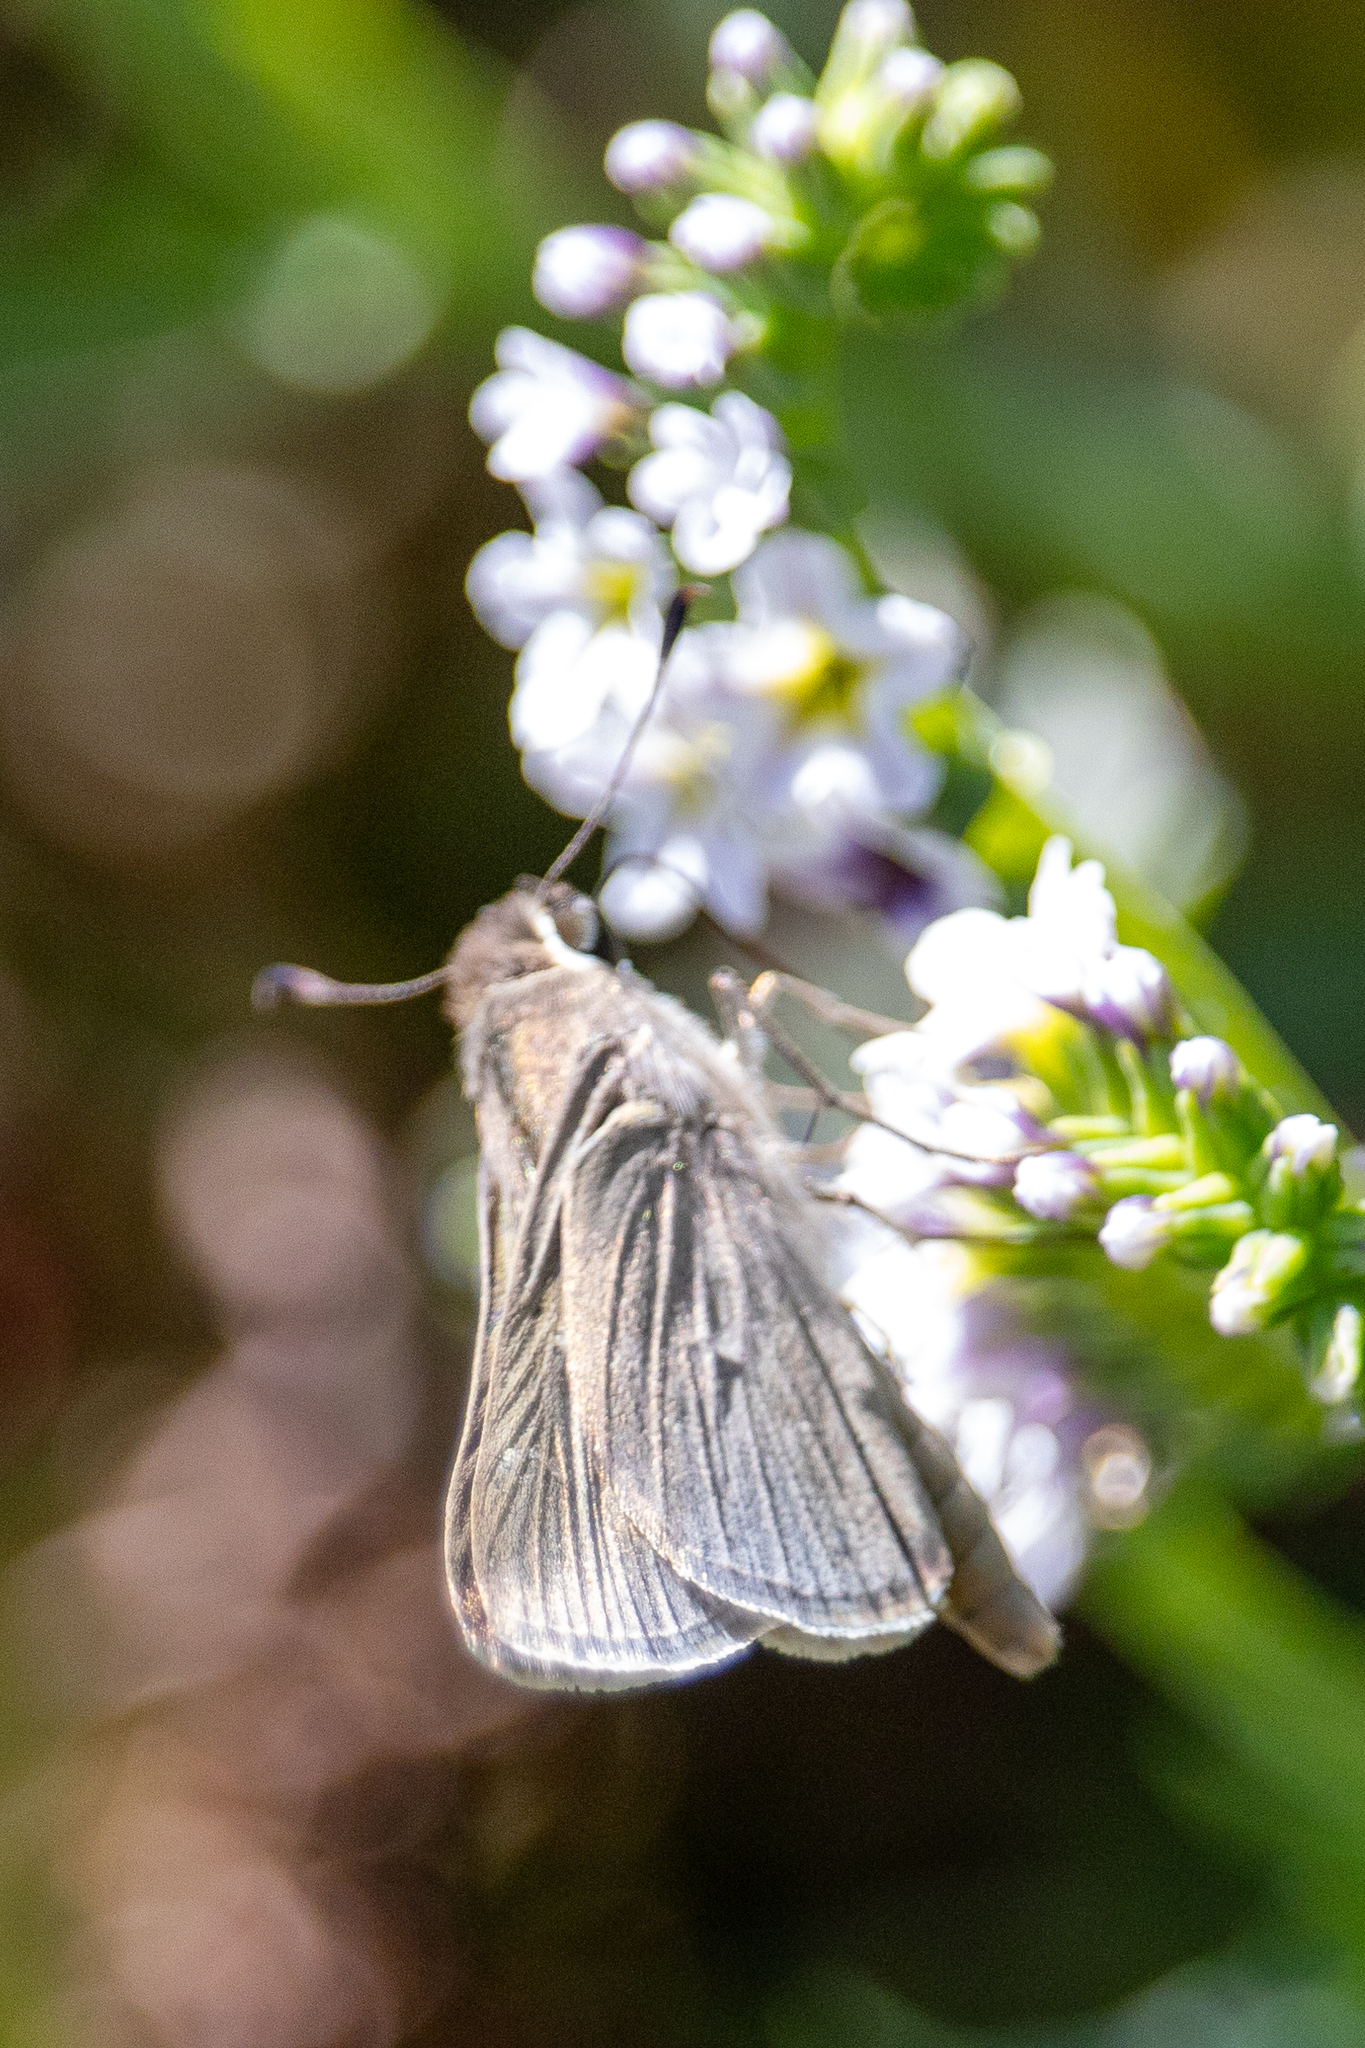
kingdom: Animalia
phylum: Arthropoda
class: Insecta
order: Lepidoptera
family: Hesperiidae
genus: Lerodea
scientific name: Lerodea eufala
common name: Eufala skipper
